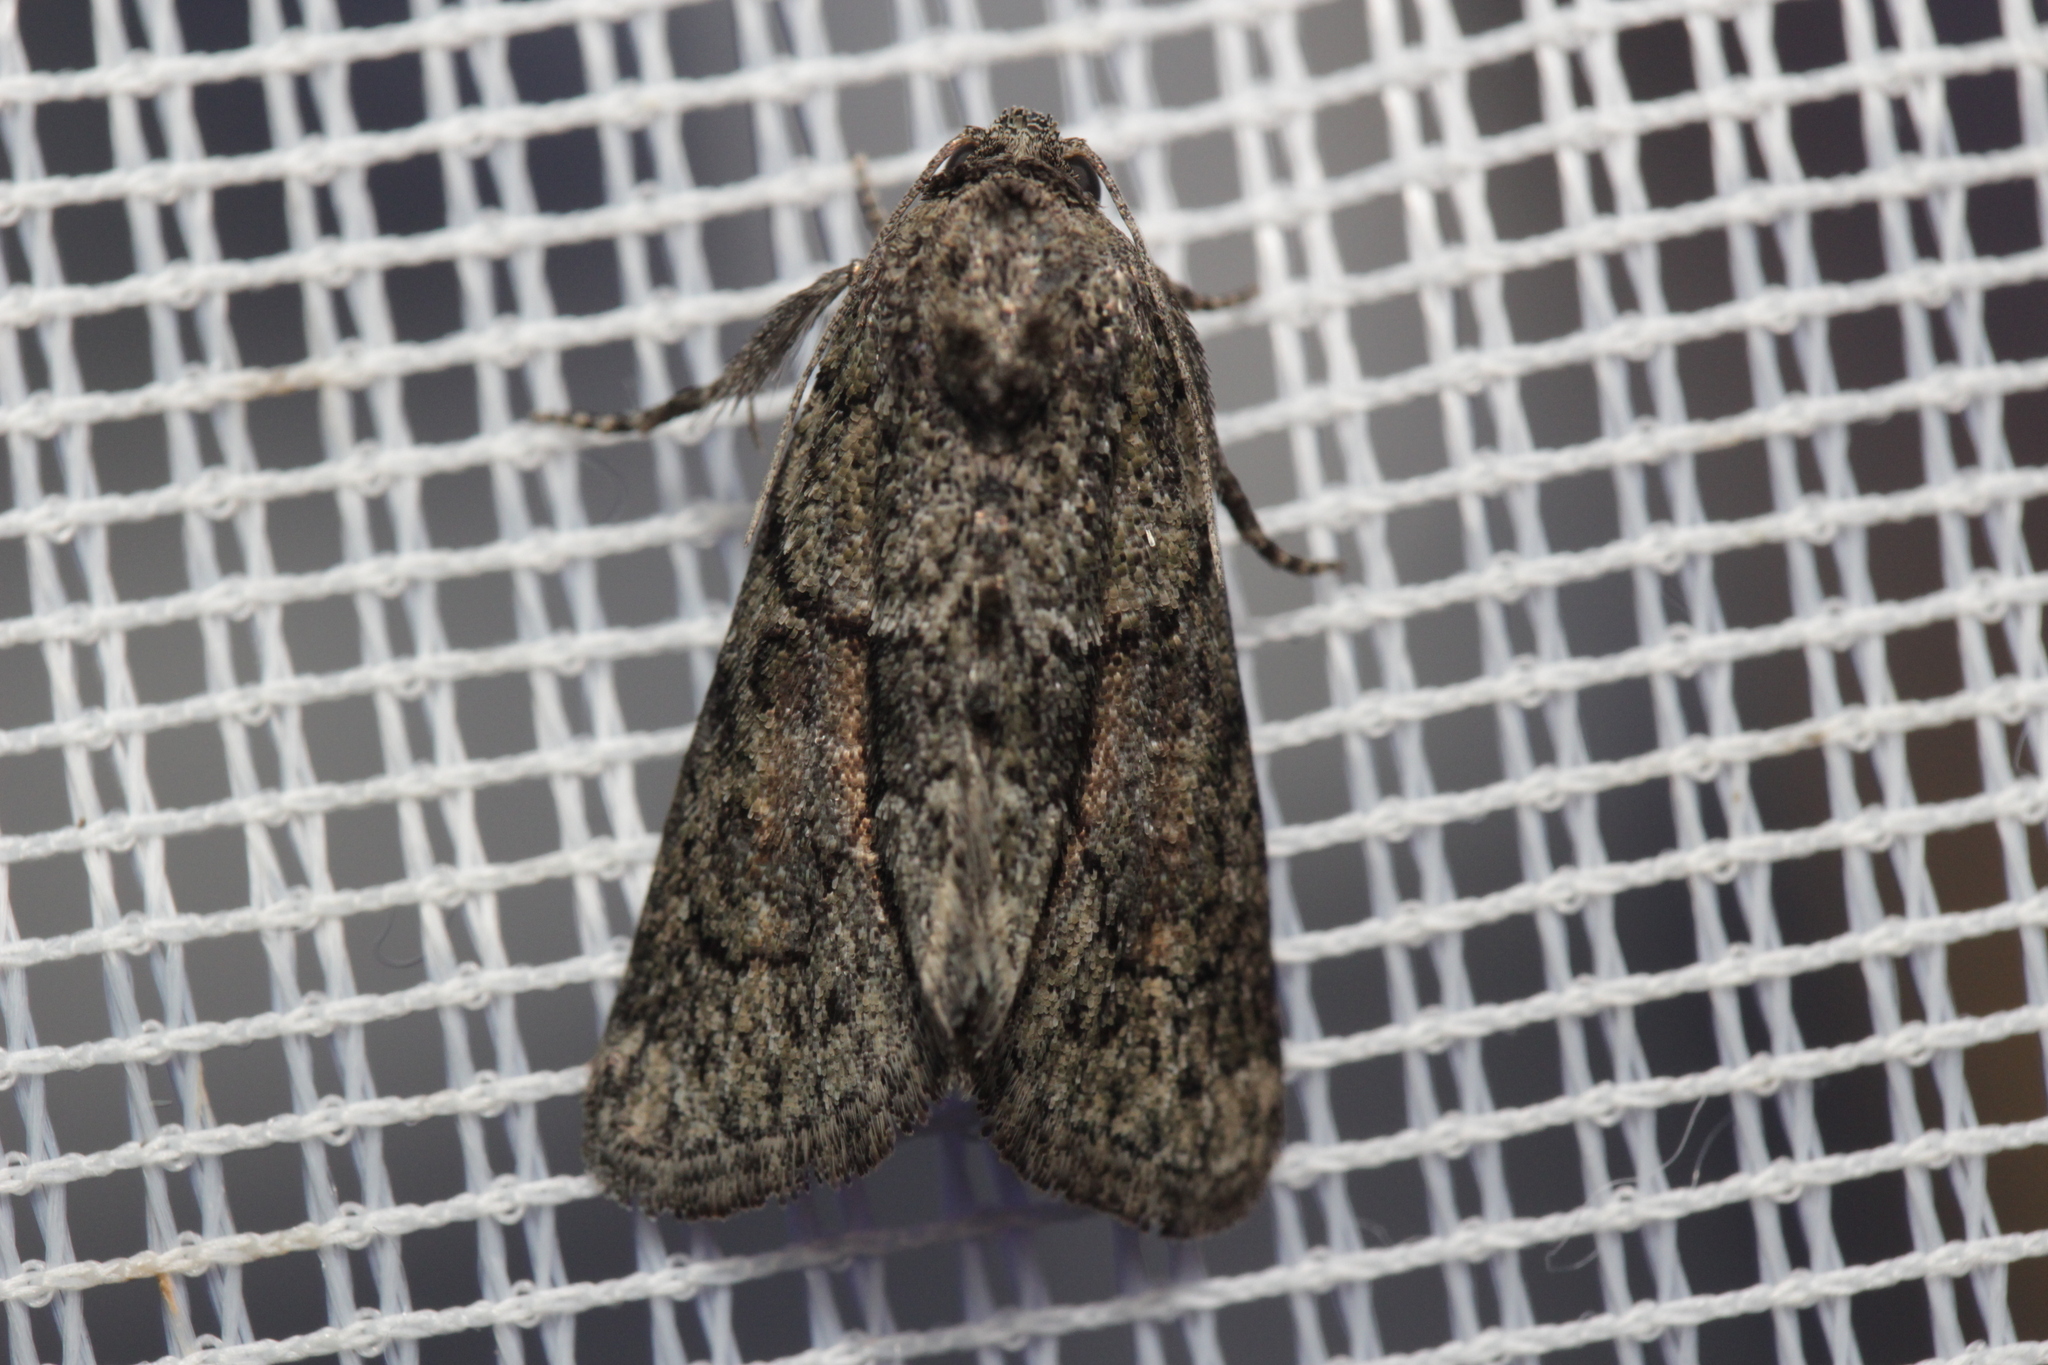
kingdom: Animalia
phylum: Arthropoda
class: Insecta
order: Lepidoptera
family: Noctuidae
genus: Cryphia
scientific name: Cryphia fraudatricula
